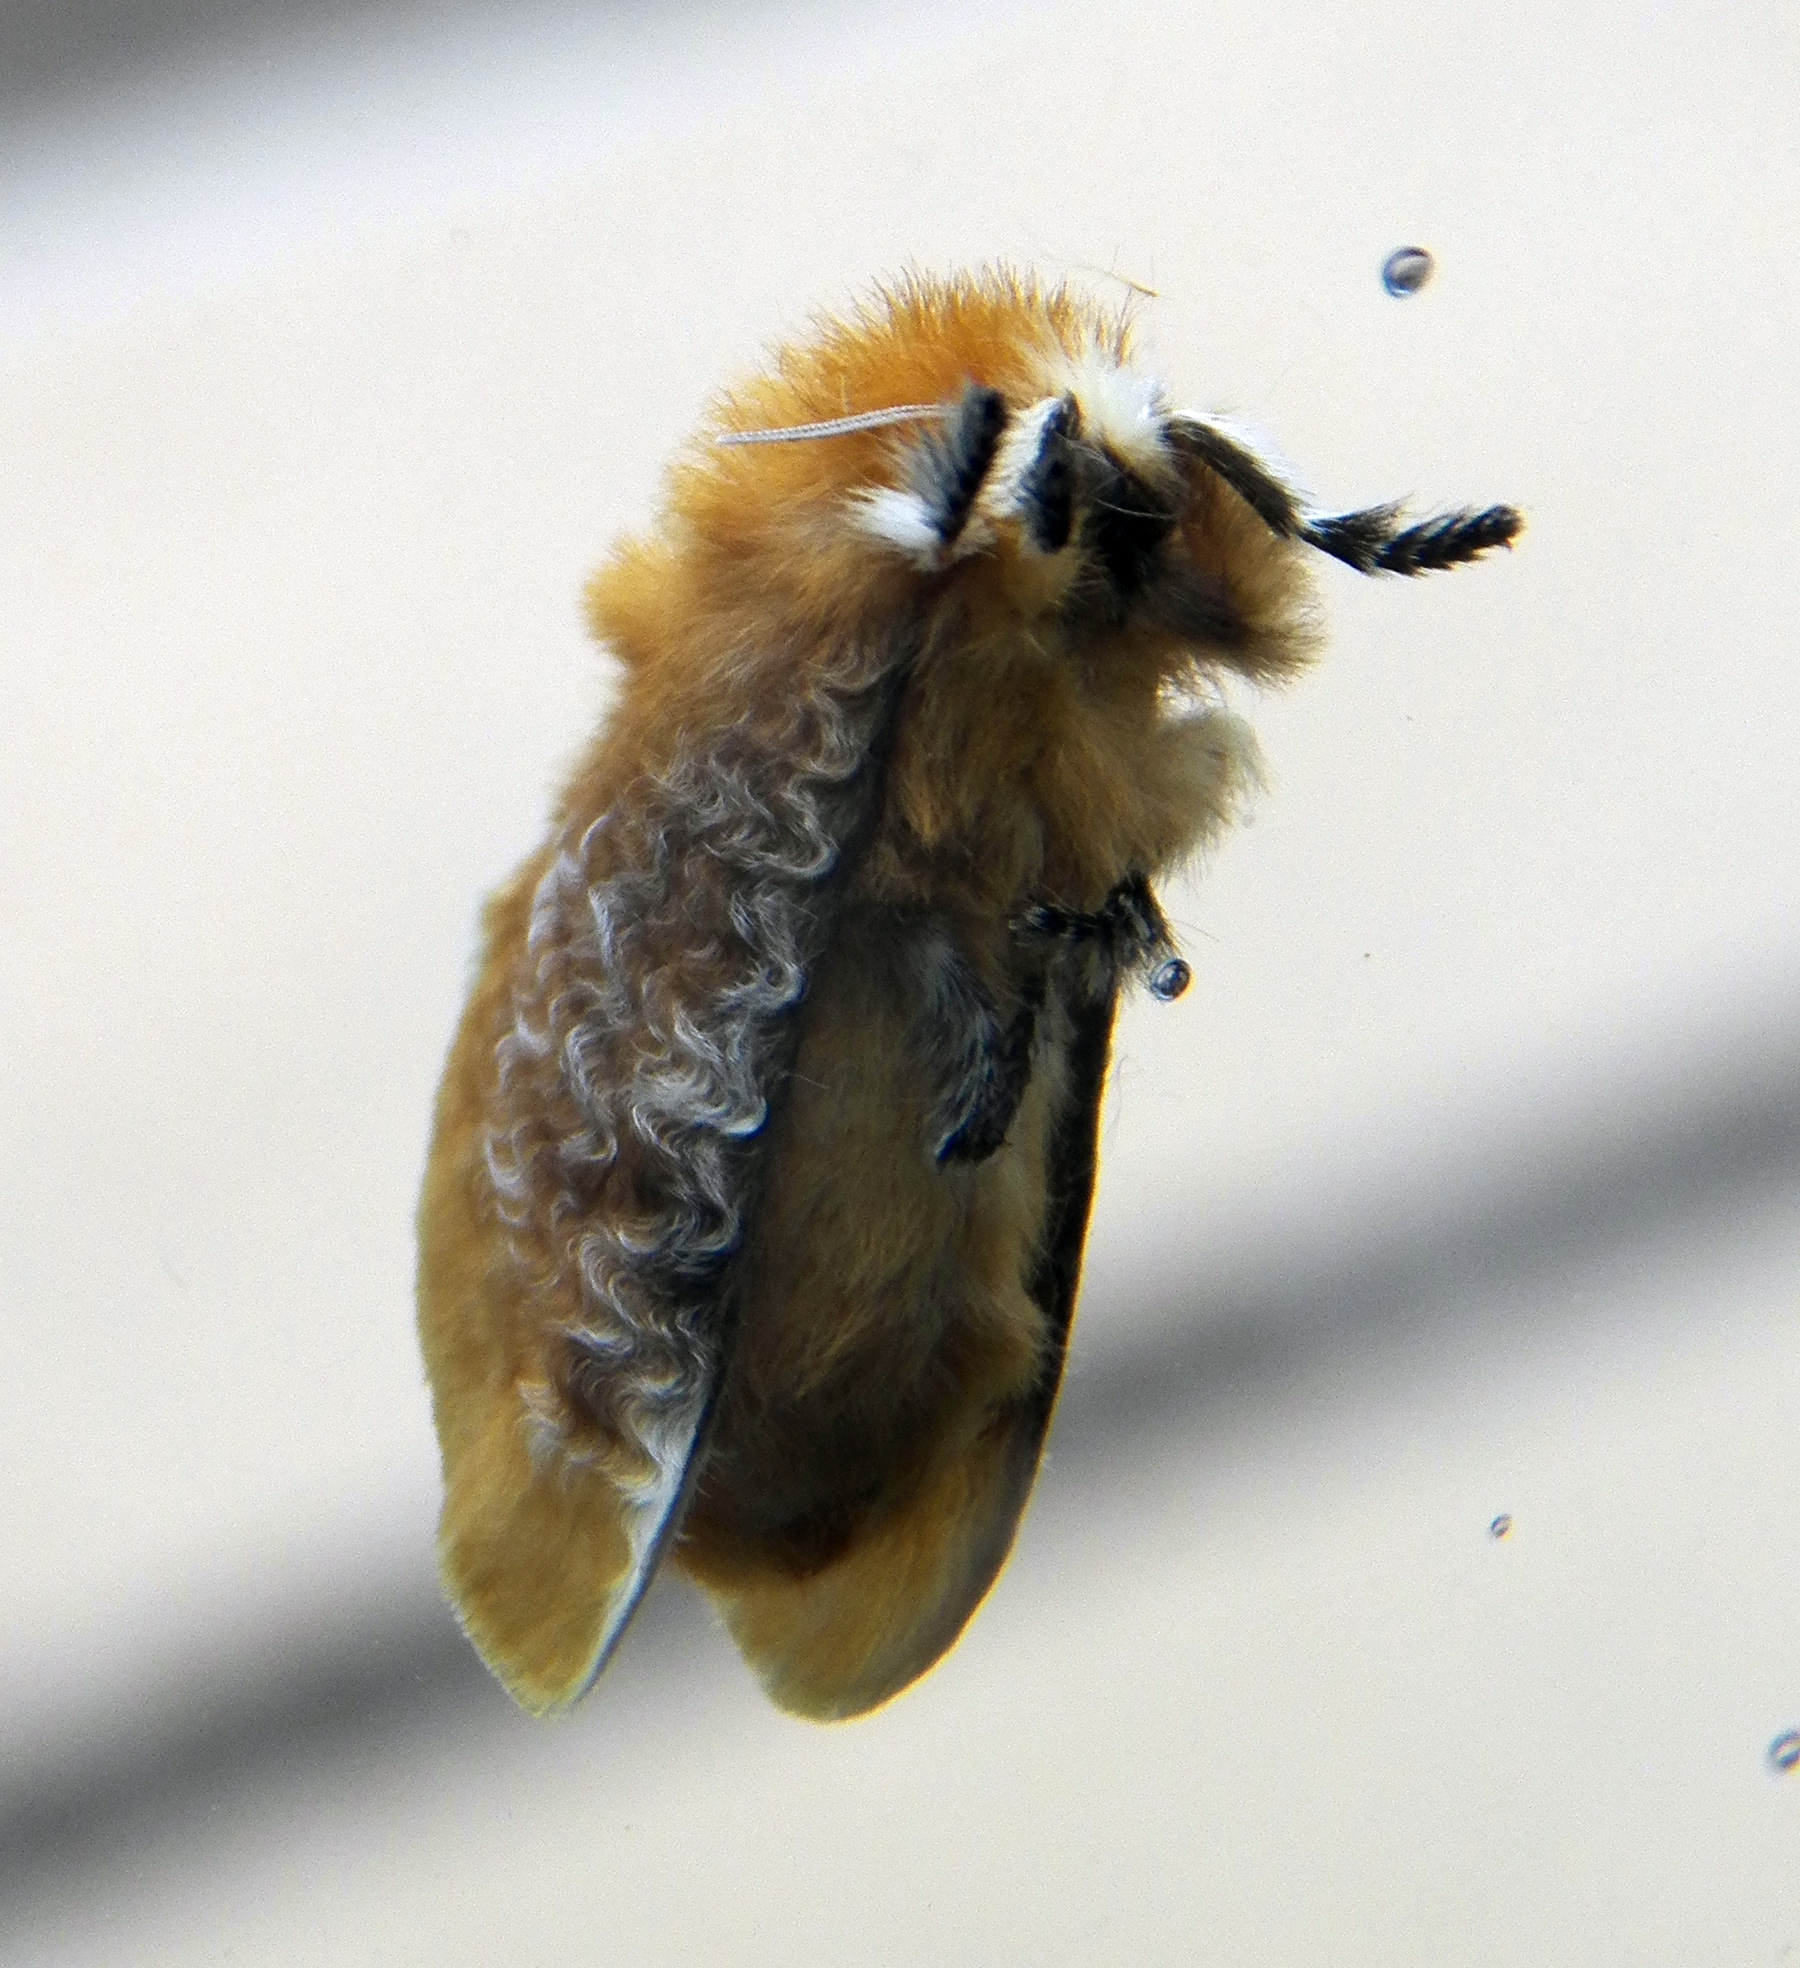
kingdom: Animalia
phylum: Arthropoda
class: Insecta
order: Lepidoptera
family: Megalopygidae
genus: Megalopyge
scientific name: Megalopyge opercularis
